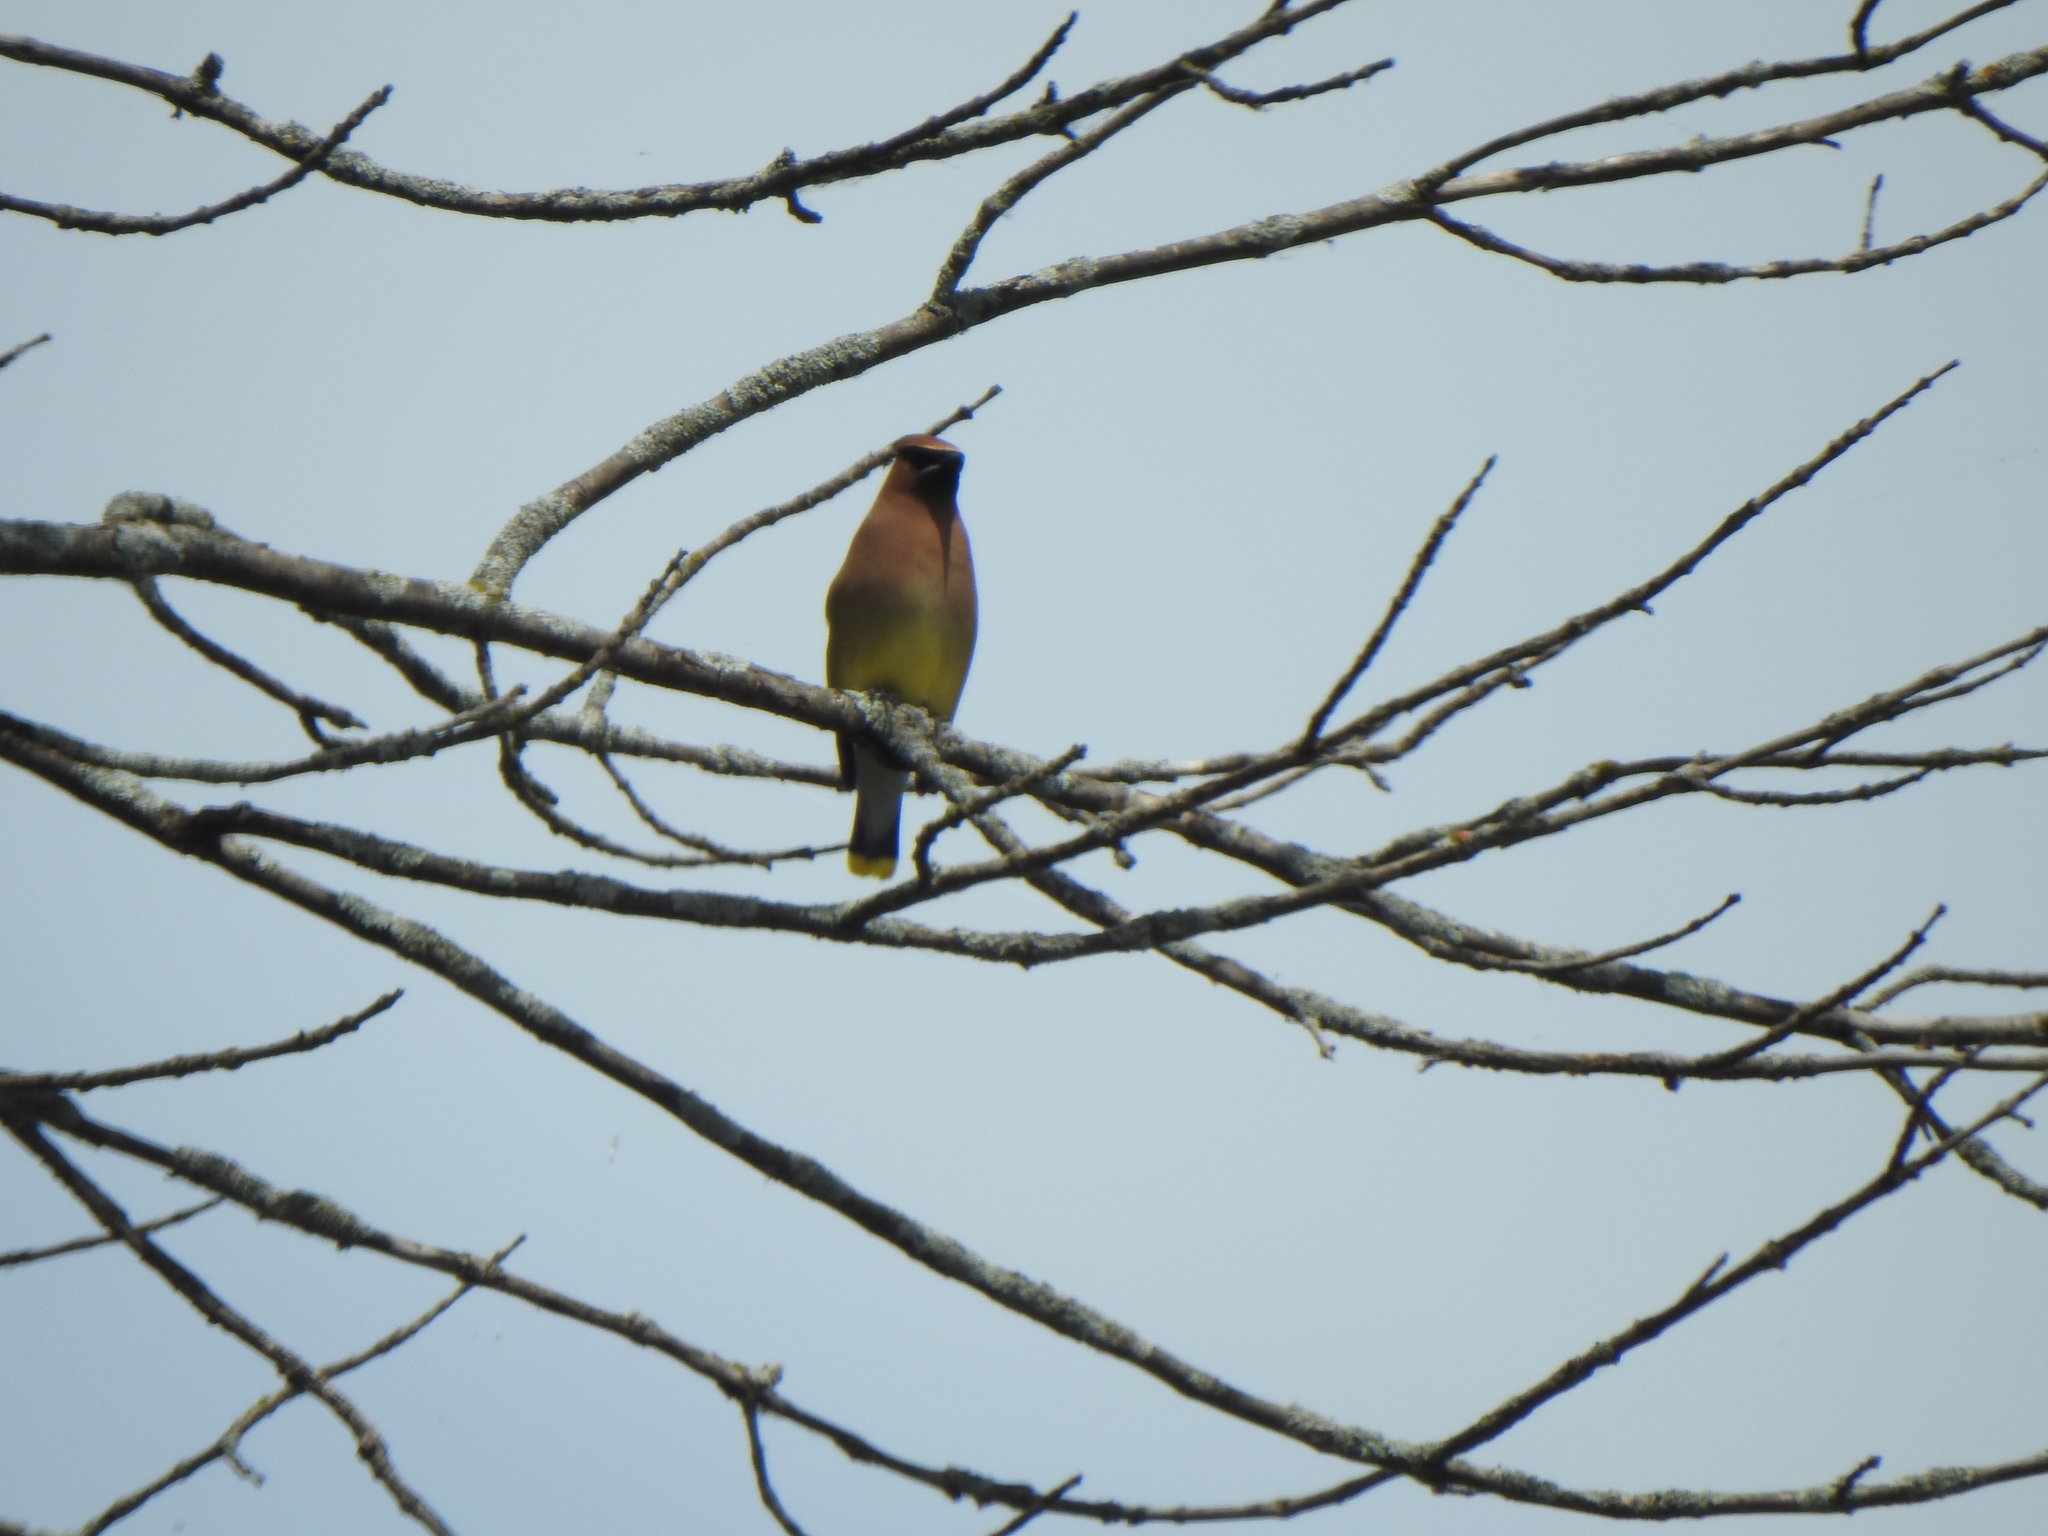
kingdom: Animalia
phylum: Chordata
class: Aves
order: Passeriformes
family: Bombycillidae
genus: Bombycilla
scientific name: Bombycilla cedrorum
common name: Cedar waxwing
